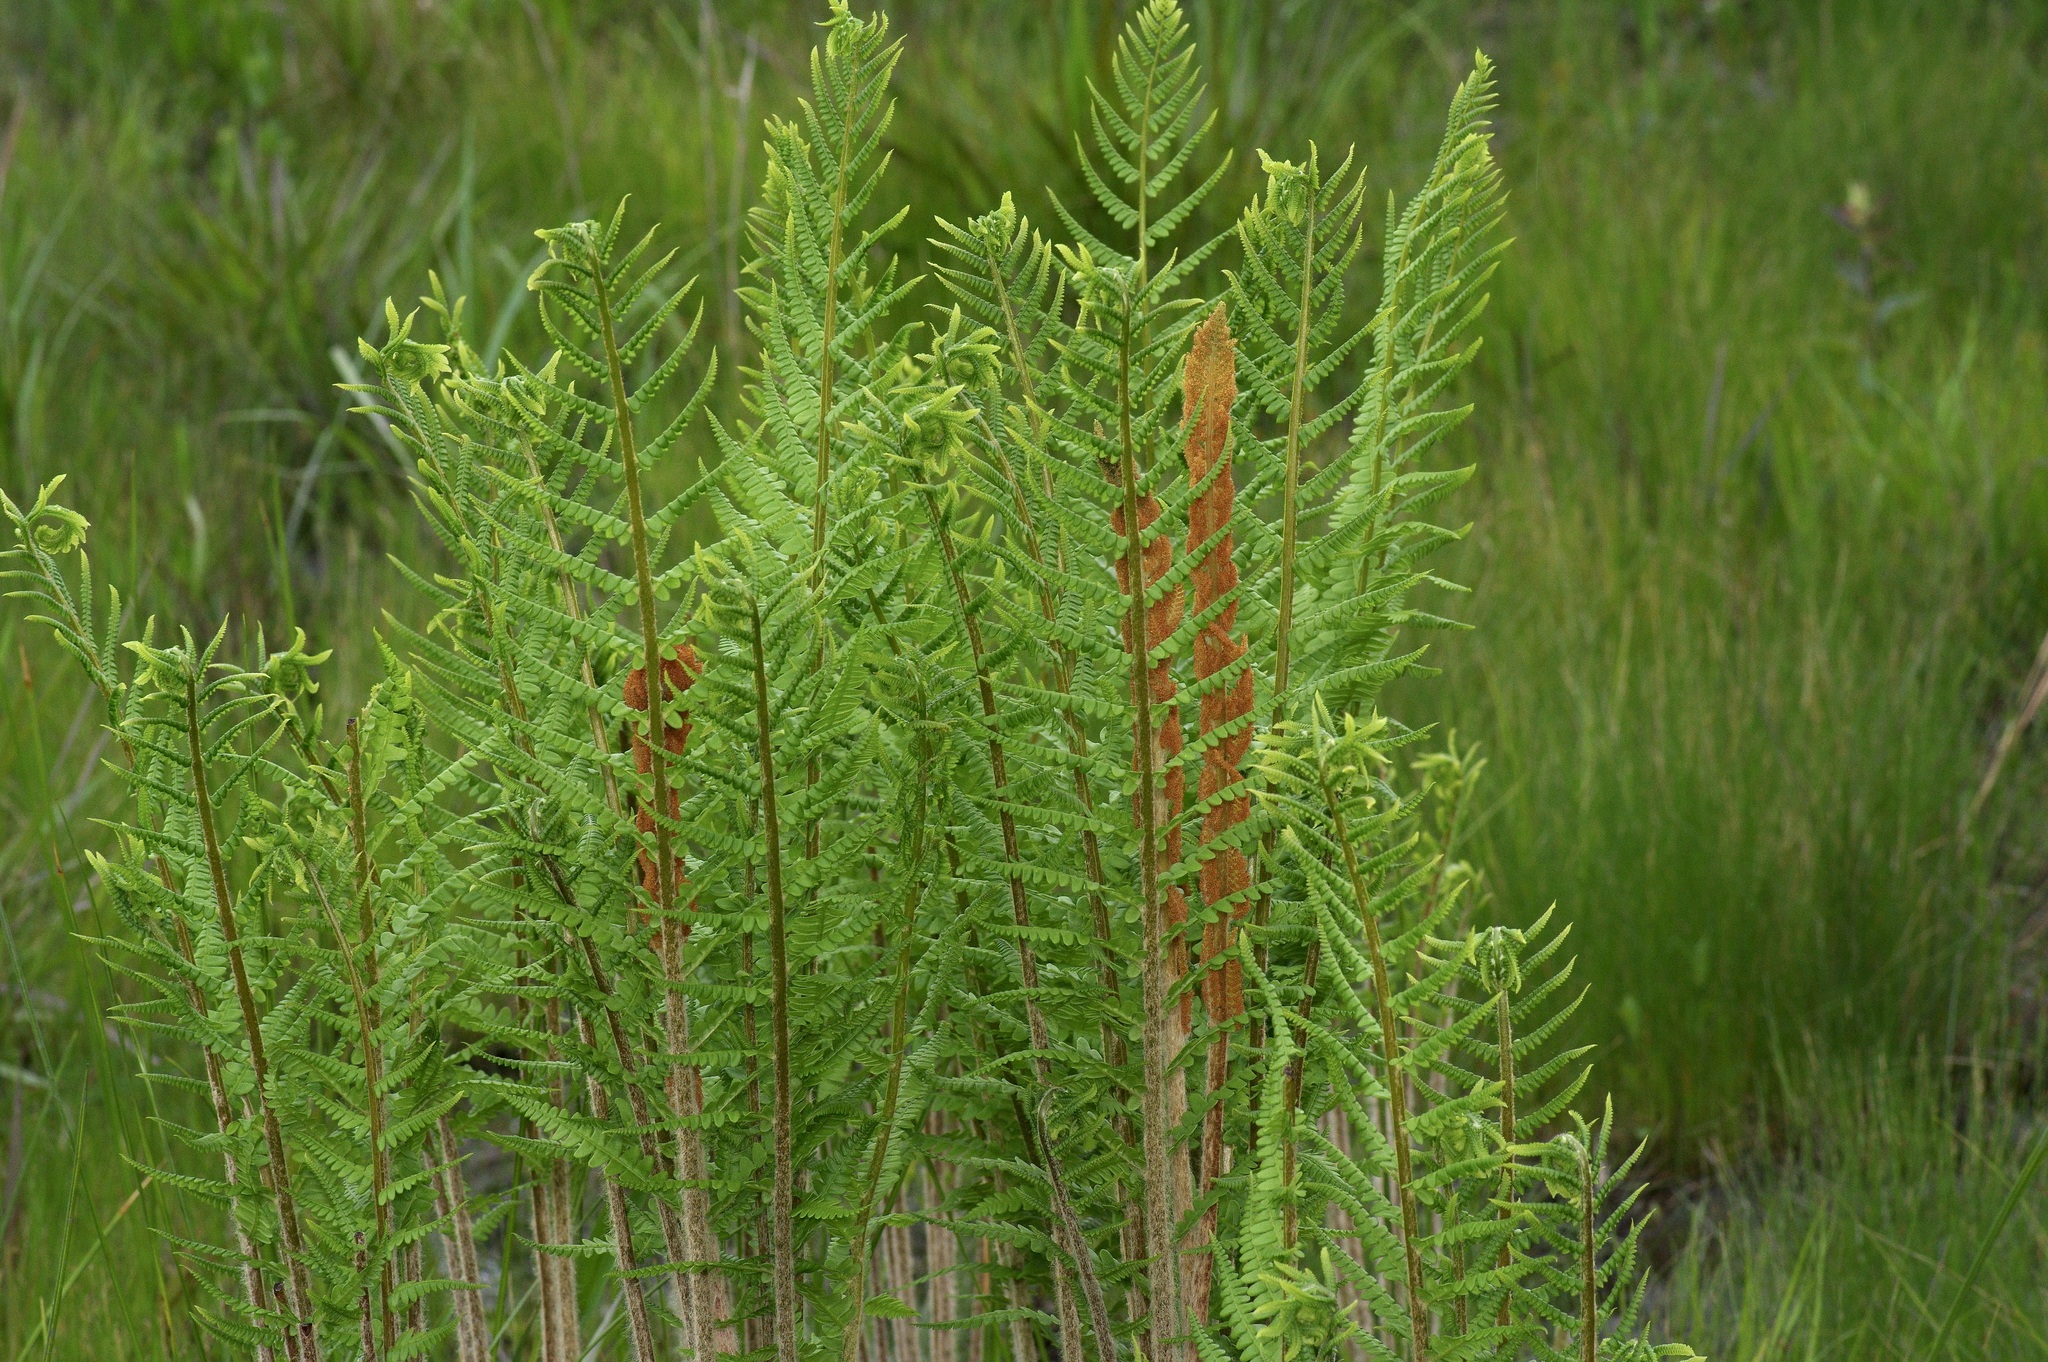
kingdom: Plantae
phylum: Tracheophyta
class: Polypodiopsida
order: Osmundales
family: Osmundaceae
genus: Osmundastrum
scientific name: Osmundastrum cinnamomeum
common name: Cinnamon fern
